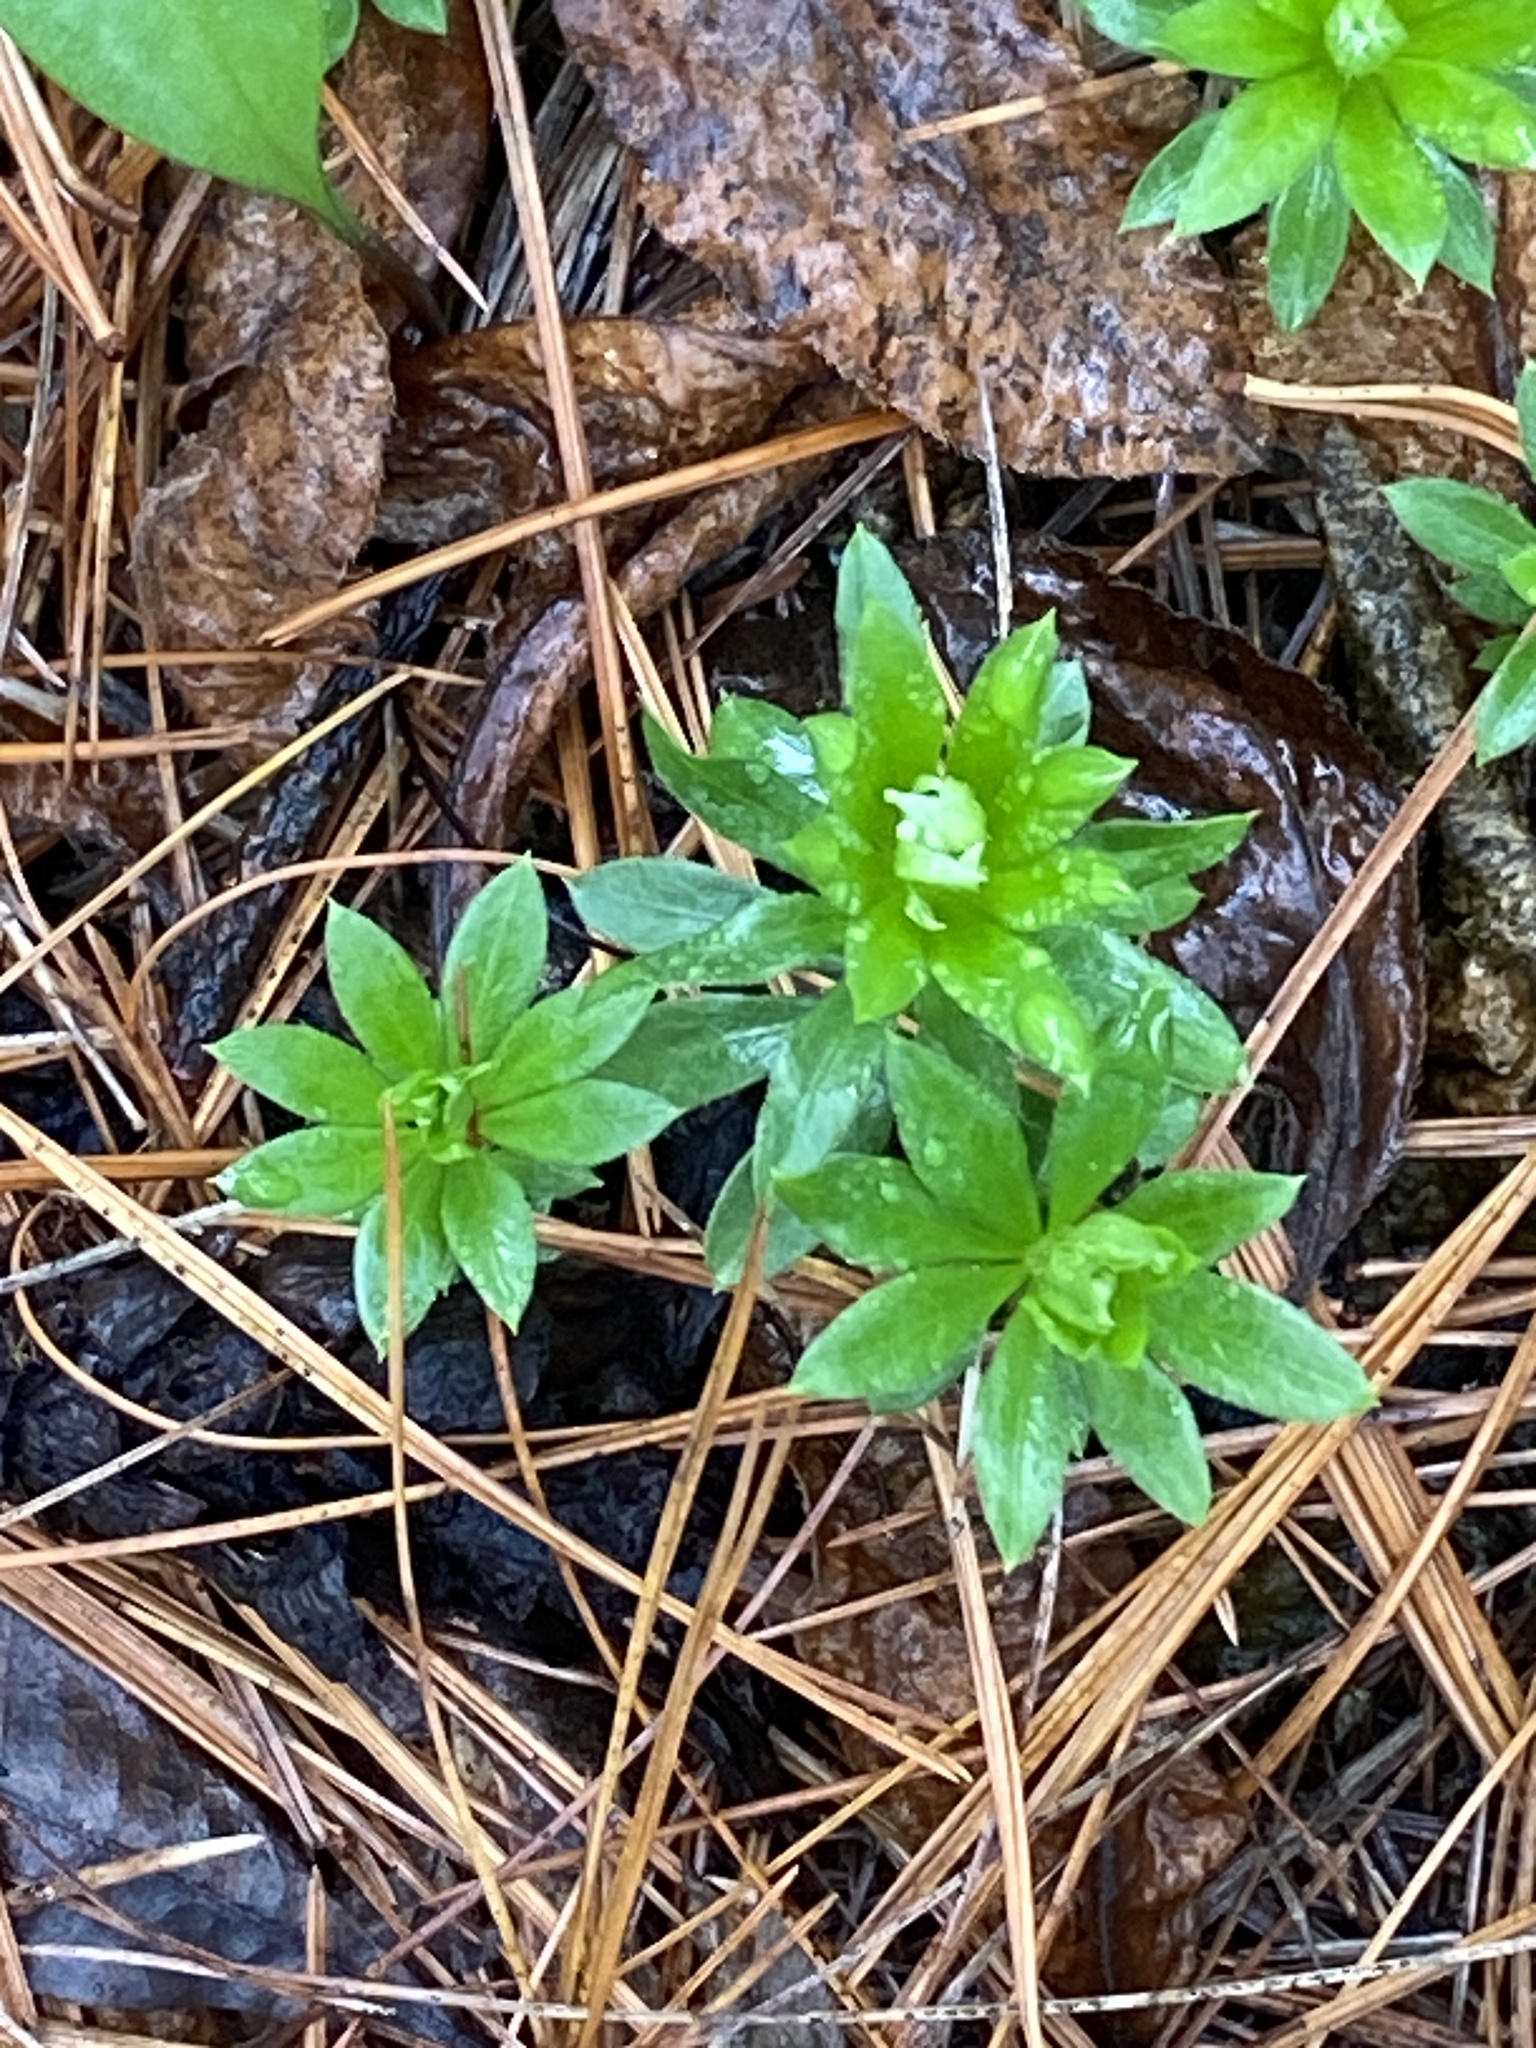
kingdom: Plantae
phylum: Tracheophyta
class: Magnoliopsida
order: Gentianales
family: Rubiaceae
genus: Galium
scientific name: Galium odoratum
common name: Sweet woodruff
